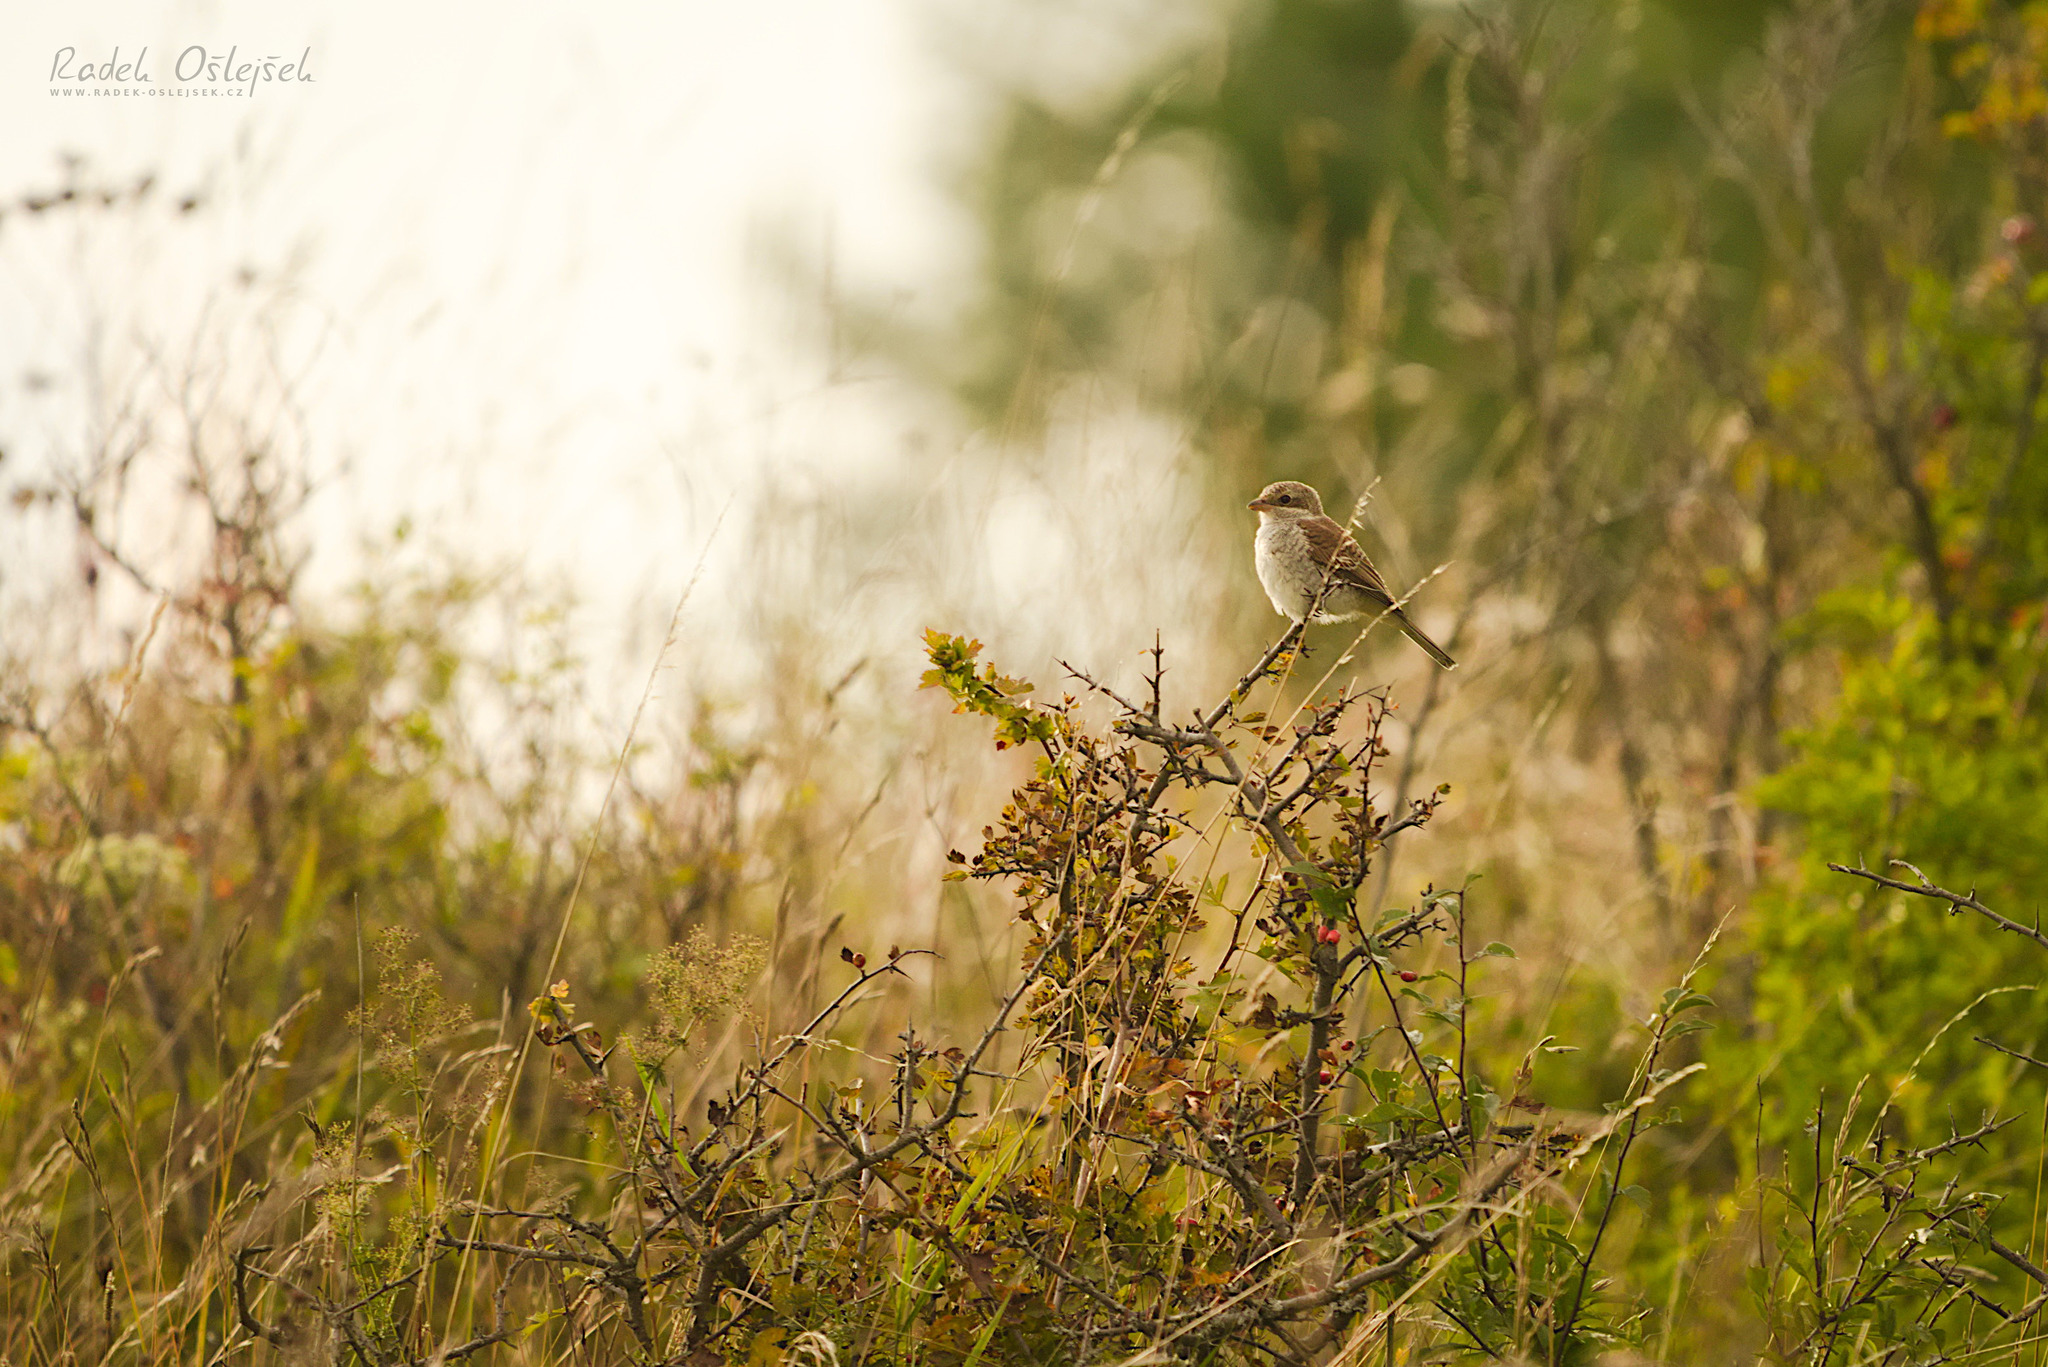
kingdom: Animalia
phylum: Chordata
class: Aves
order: Passeriformes
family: Laniidae
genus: Lanius
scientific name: Lanius collurio
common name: Red-backed shrike
